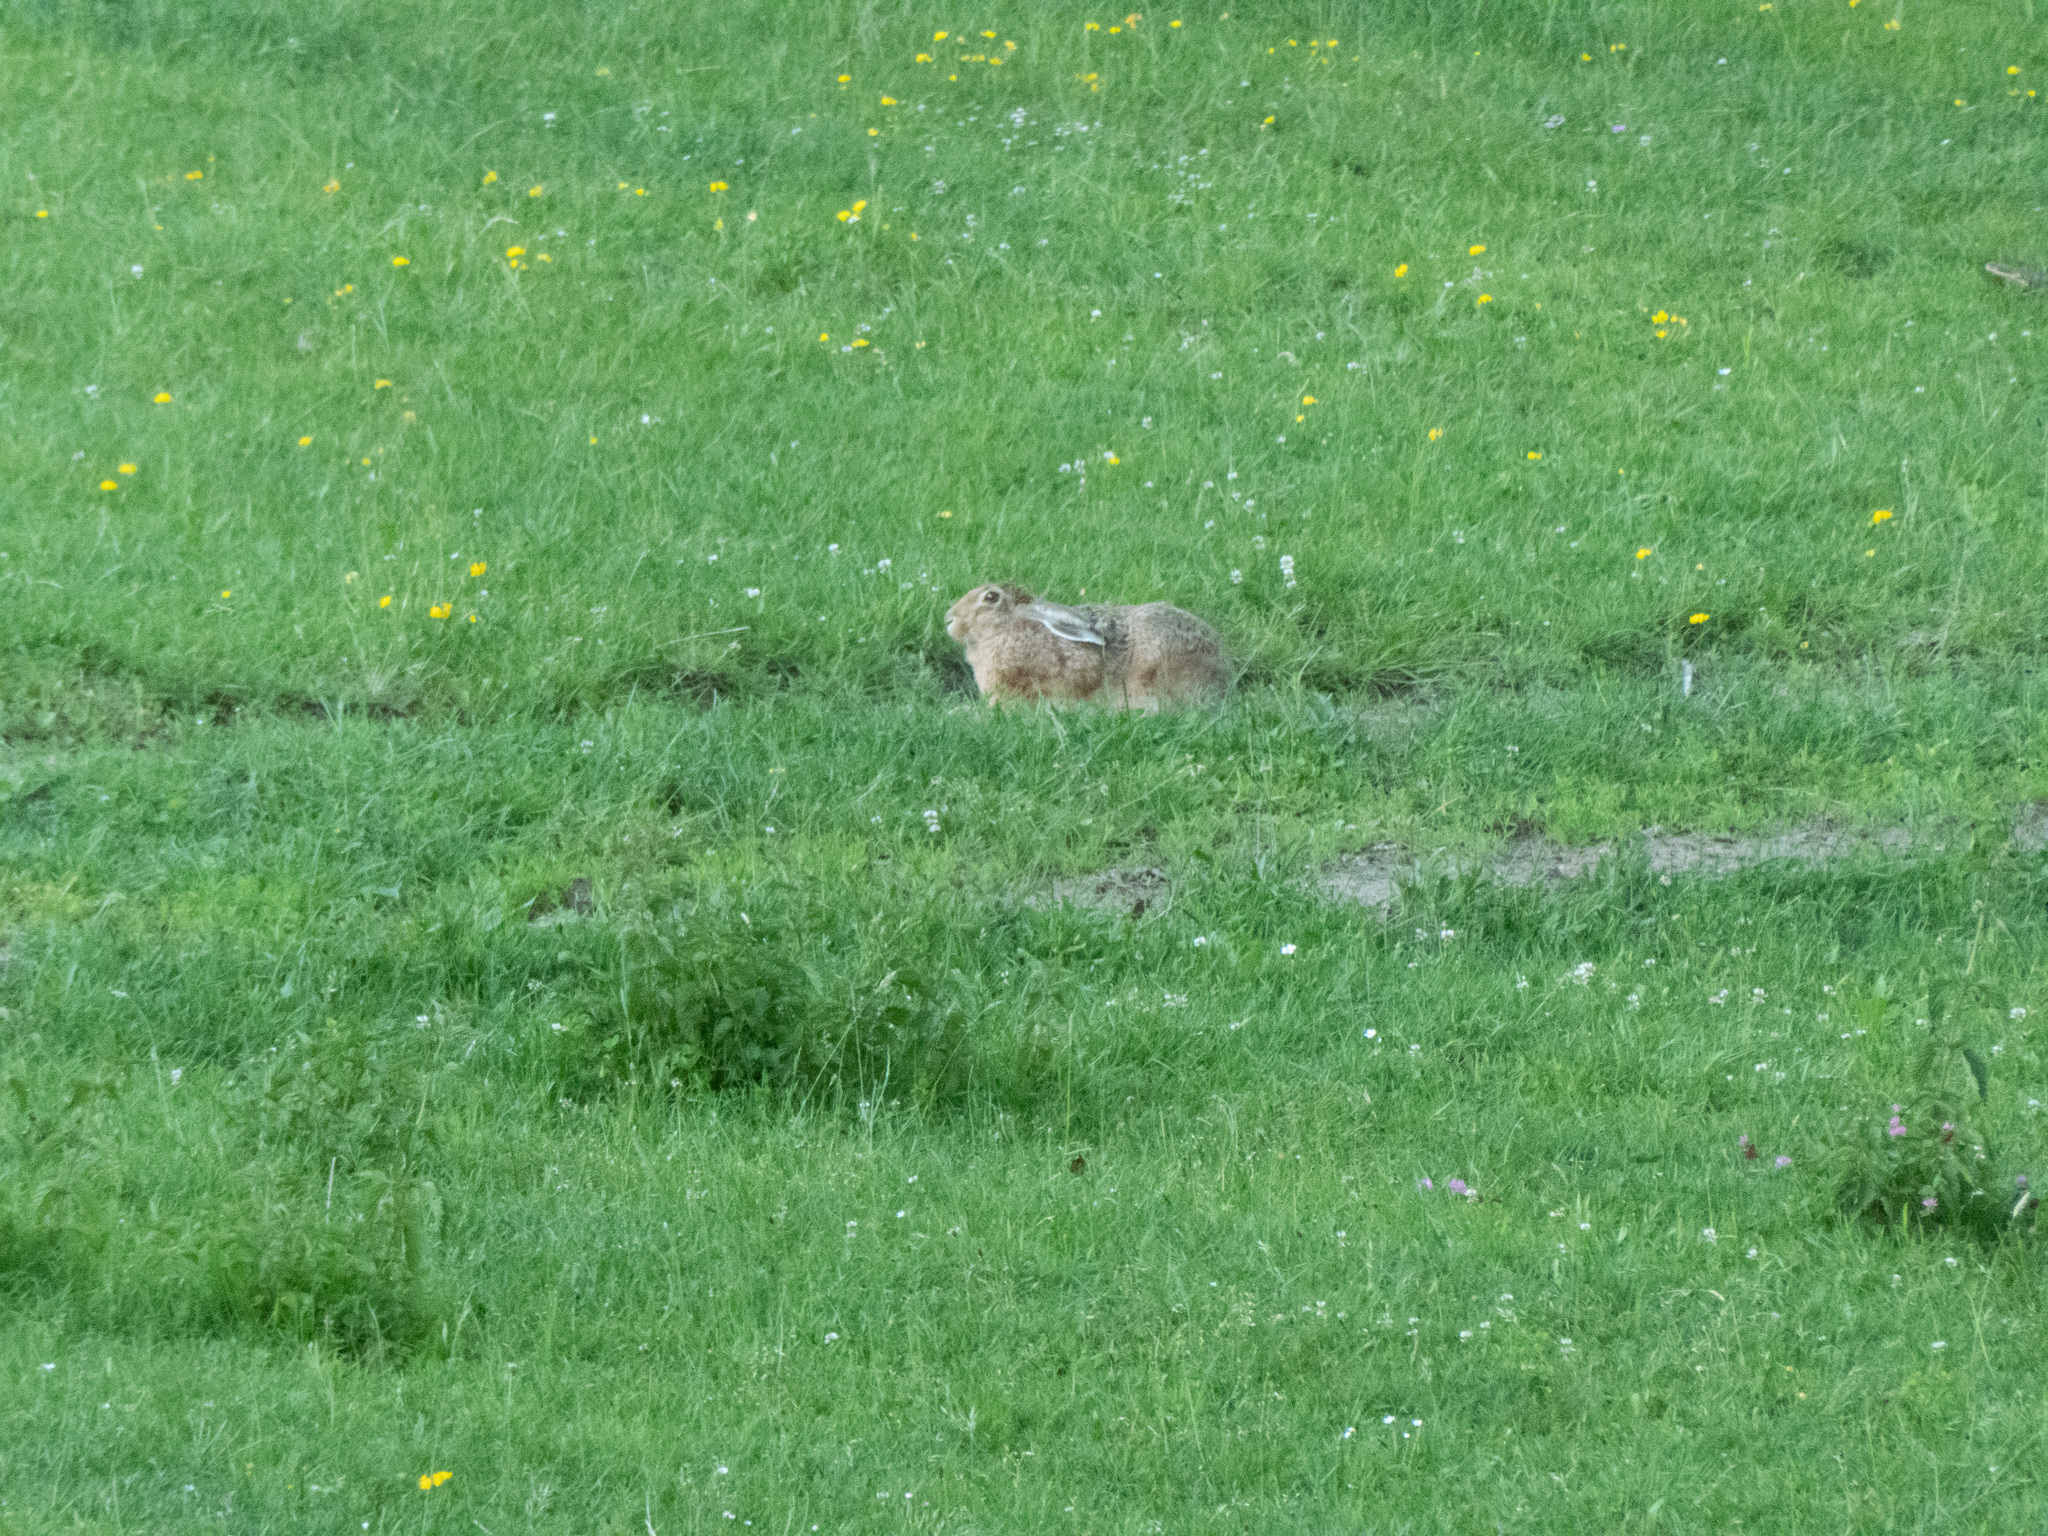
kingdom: Animalia
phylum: Chordata
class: Mammalia
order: Lagomorpha
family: Leporidae
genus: Lepus
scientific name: Lepus europaeus
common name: European hare
